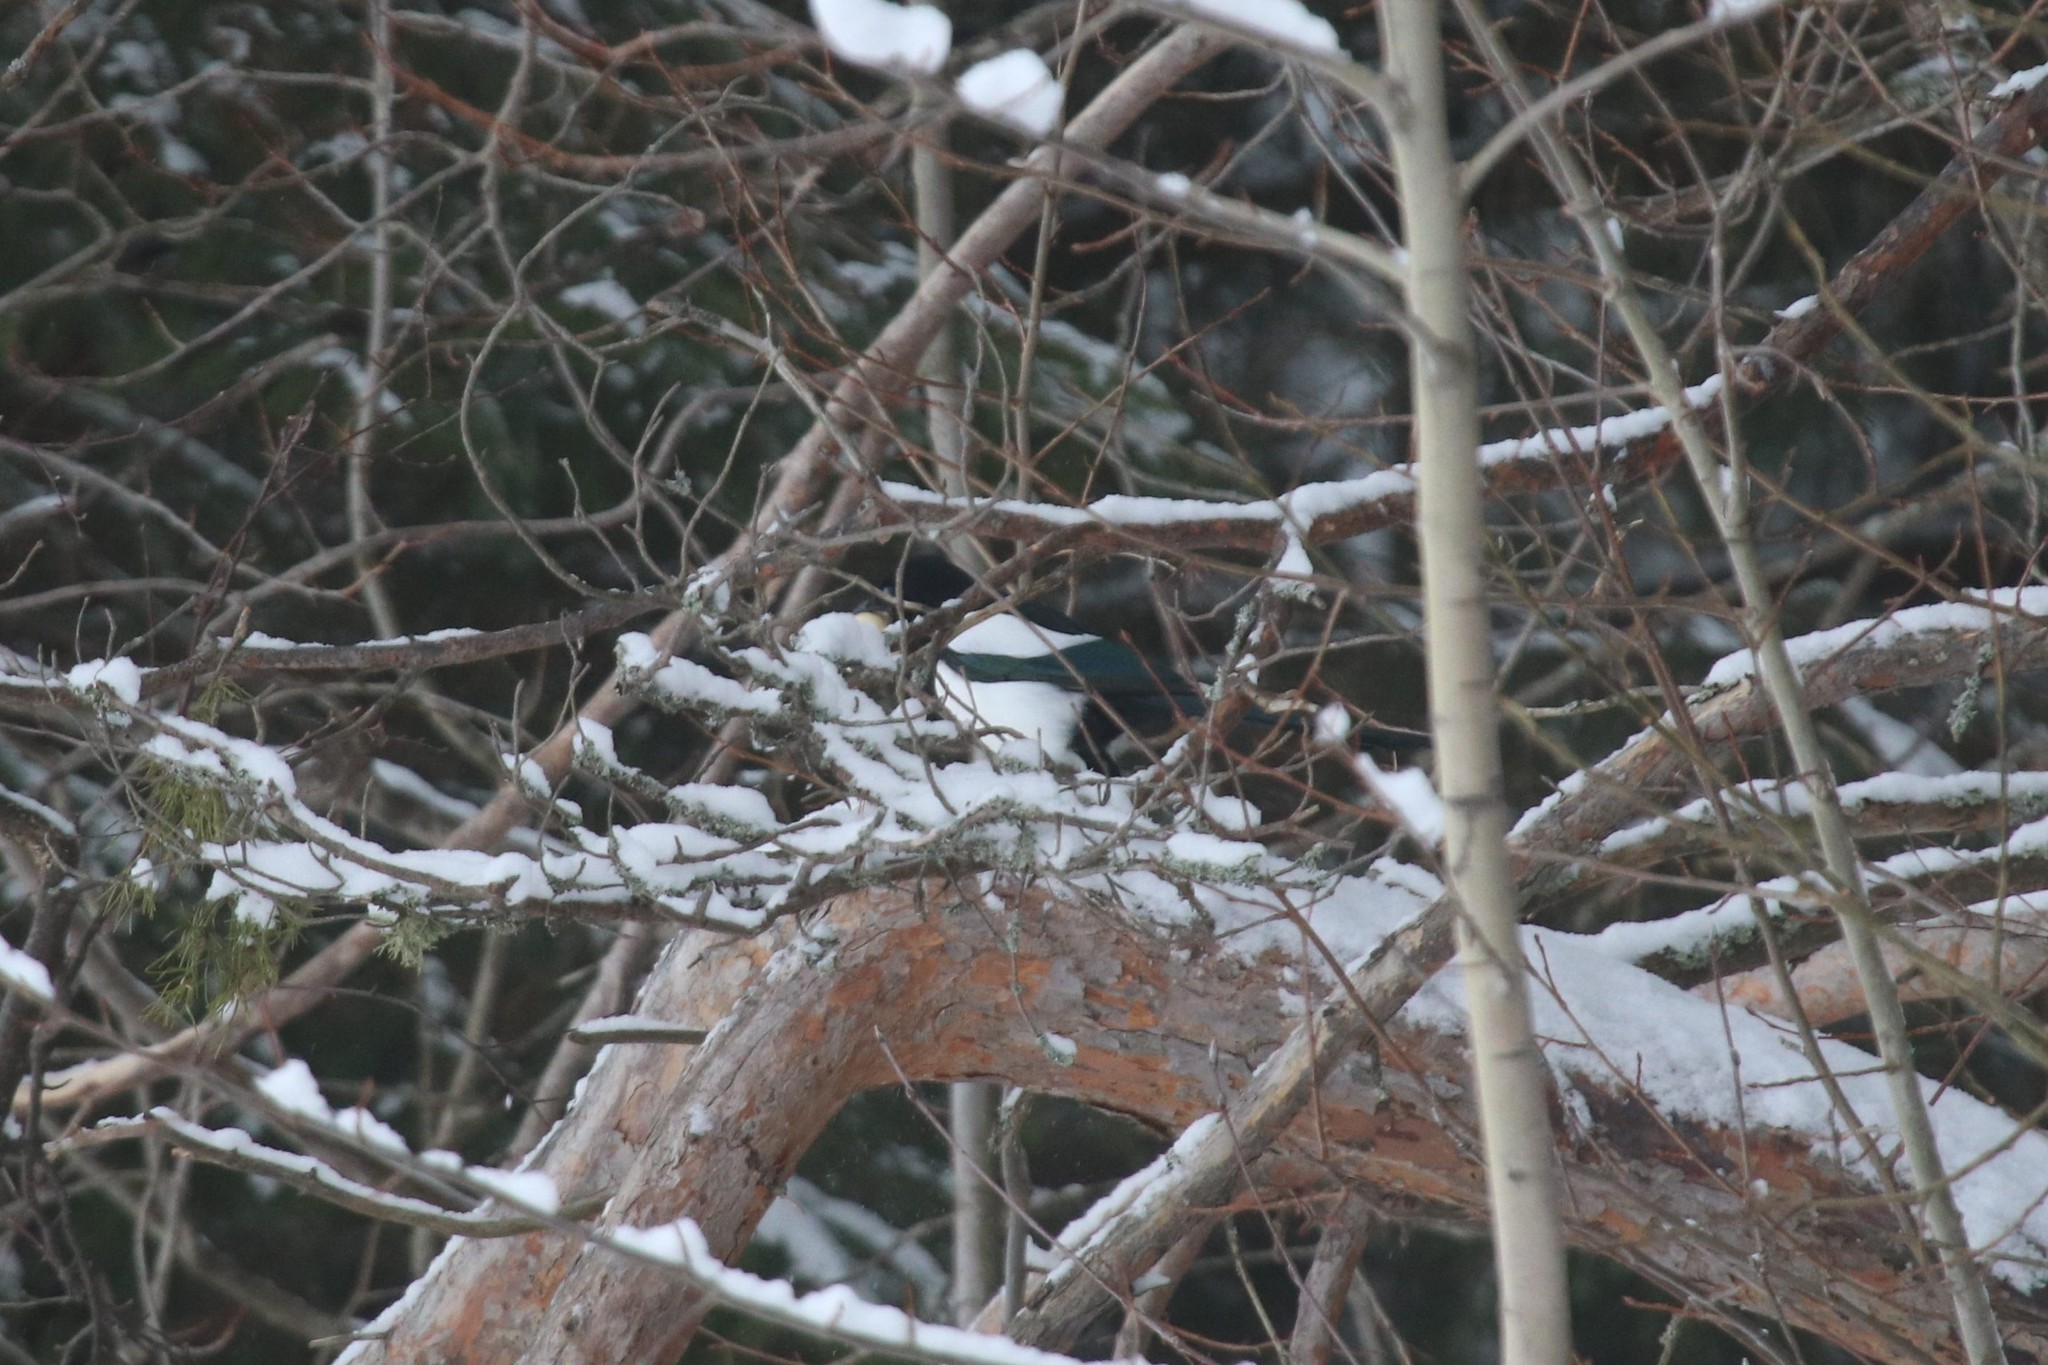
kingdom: Animalia
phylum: Chordata
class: Aves
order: Passeriformes
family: Corvidae
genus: Pica
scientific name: Pica pica
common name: Eurasian magpie
